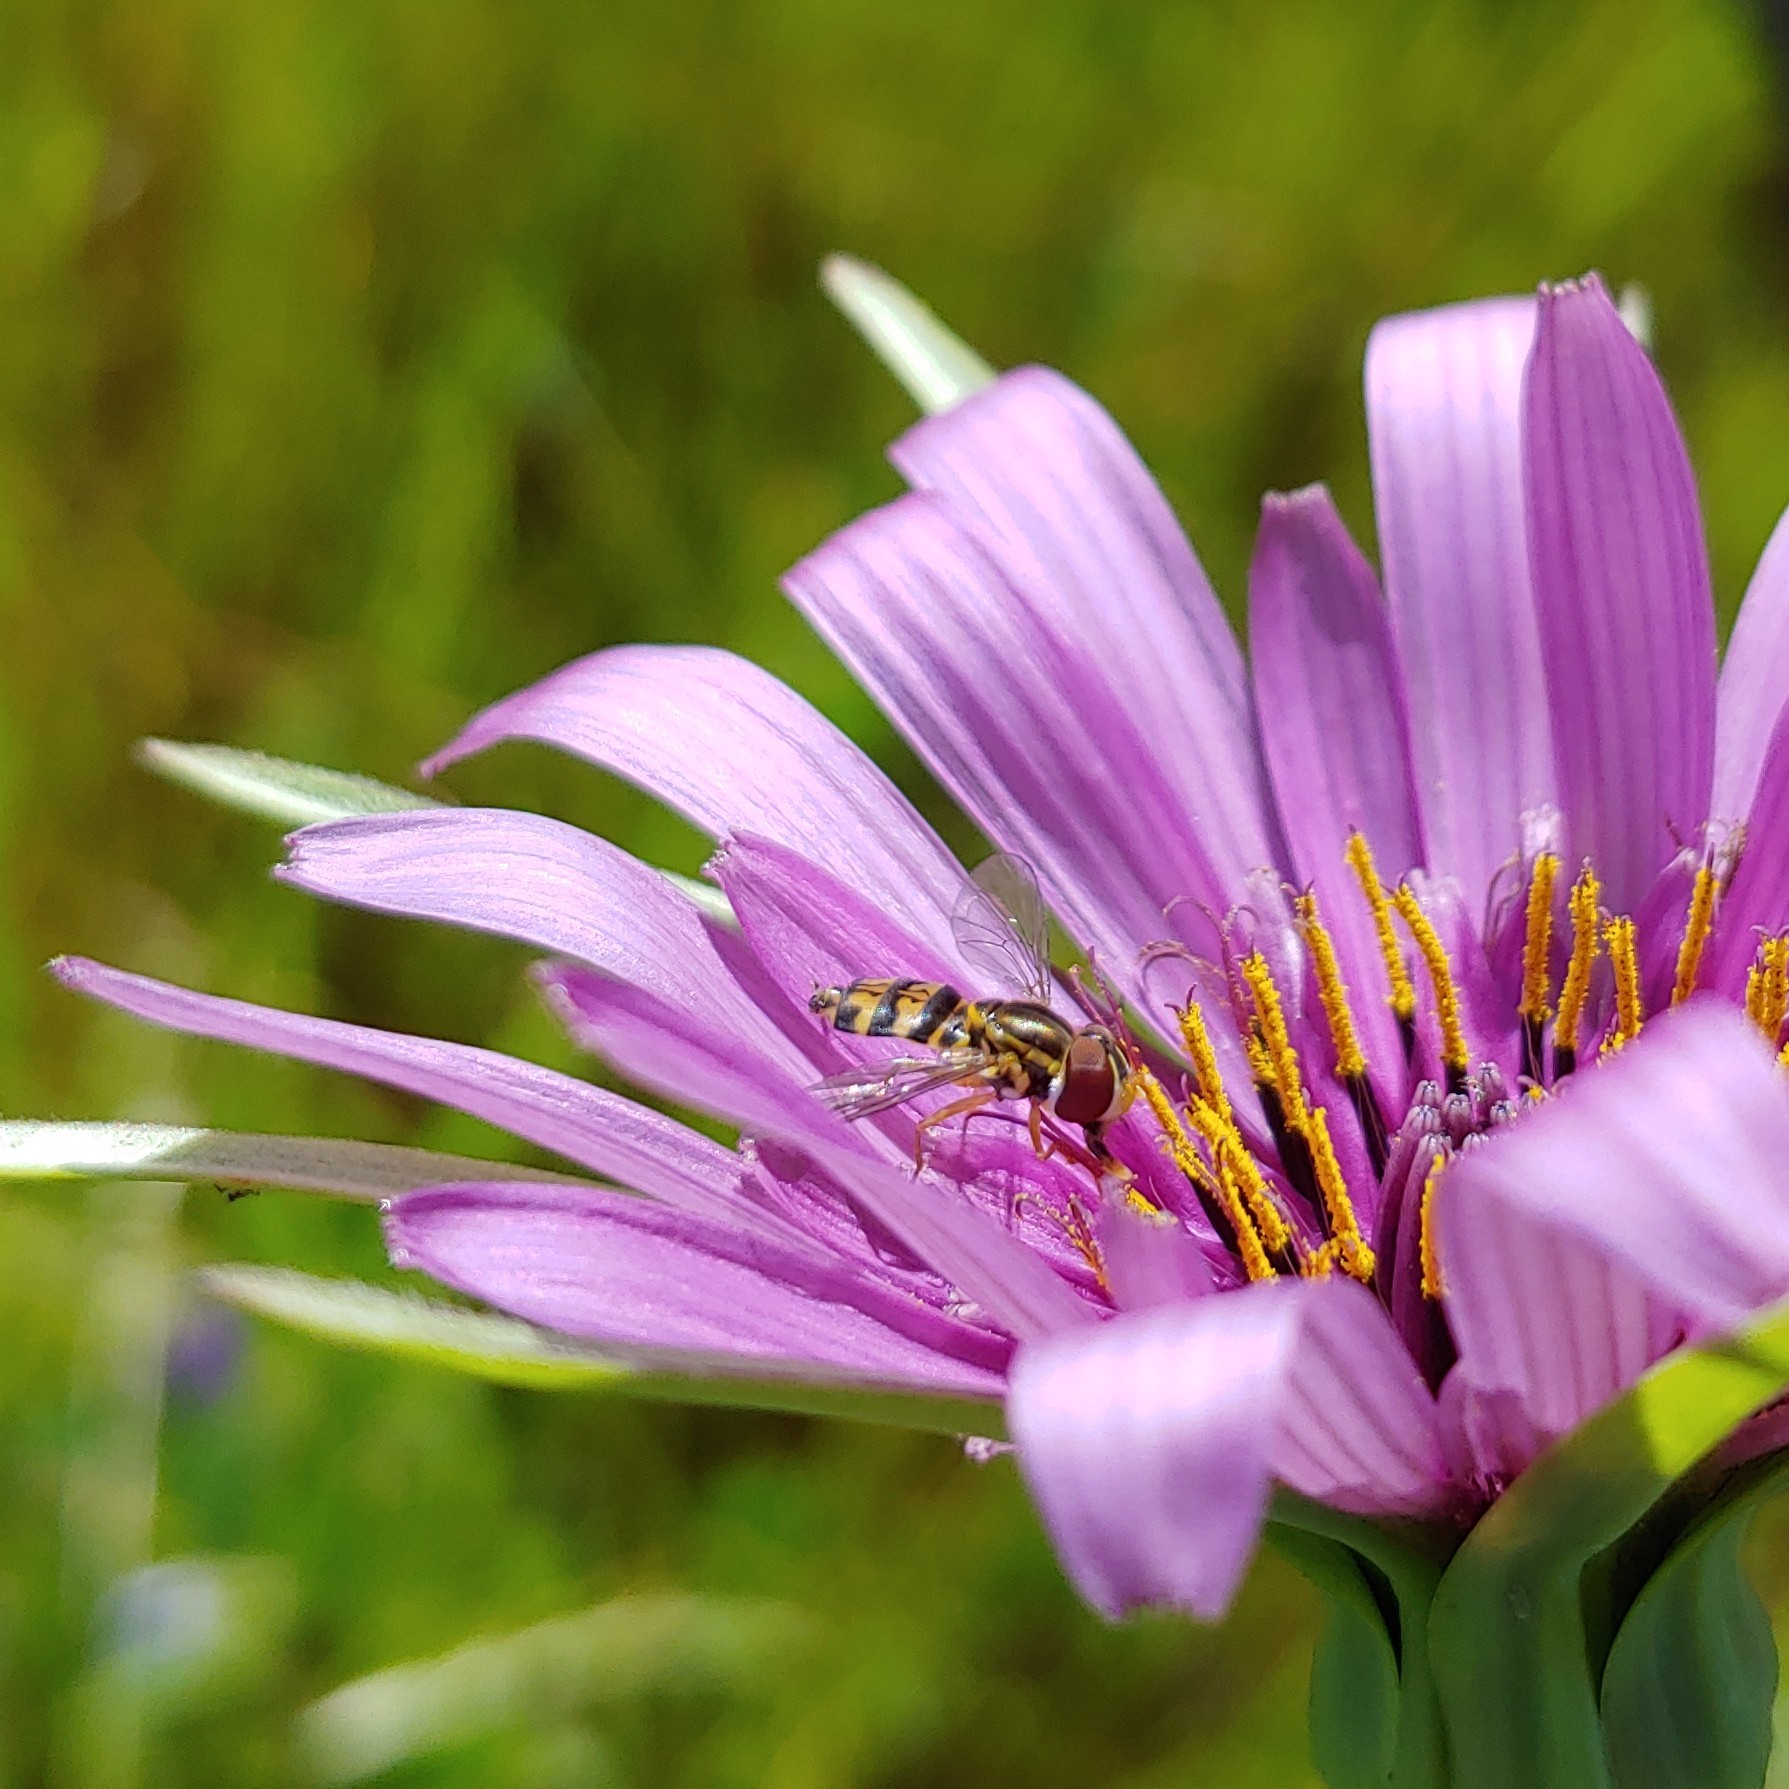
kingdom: Animalia
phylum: Arthropoda
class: Insecta
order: Diptera
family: Syrphidae
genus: Toxomerus
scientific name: Toxomerus occidentalis
